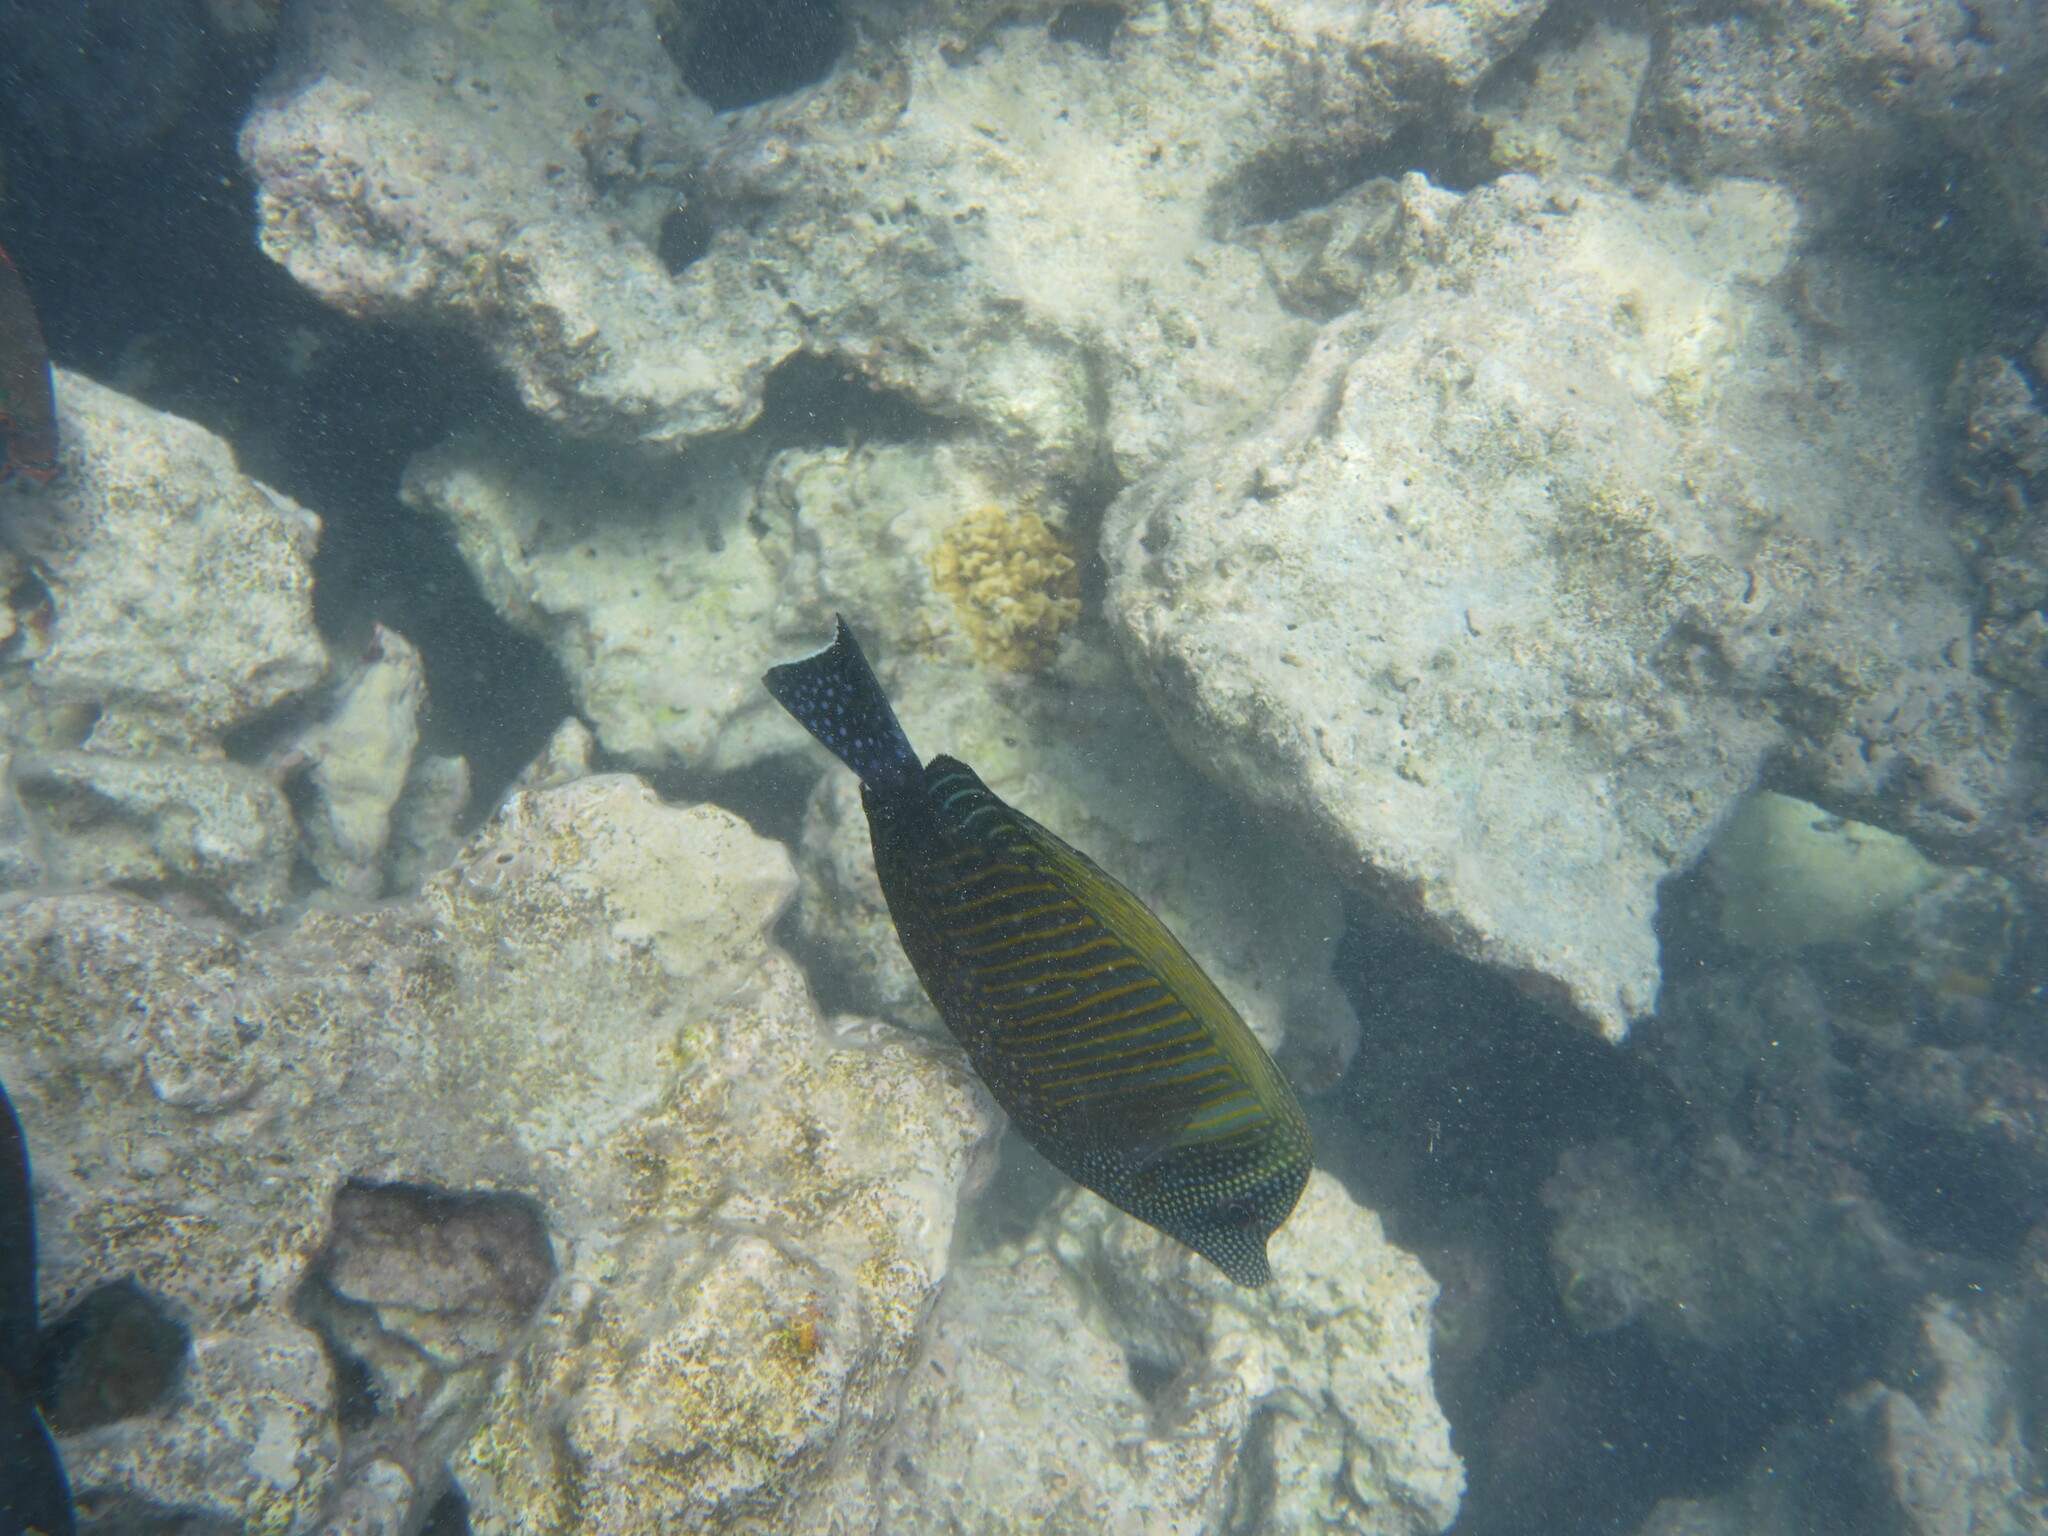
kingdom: Animalia
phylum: Chordata
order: Perciformes
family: Acanthuridae
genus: Zebrasoma
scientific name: Zebrasoma desjardinii
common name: Desjardin's sailfin tang
